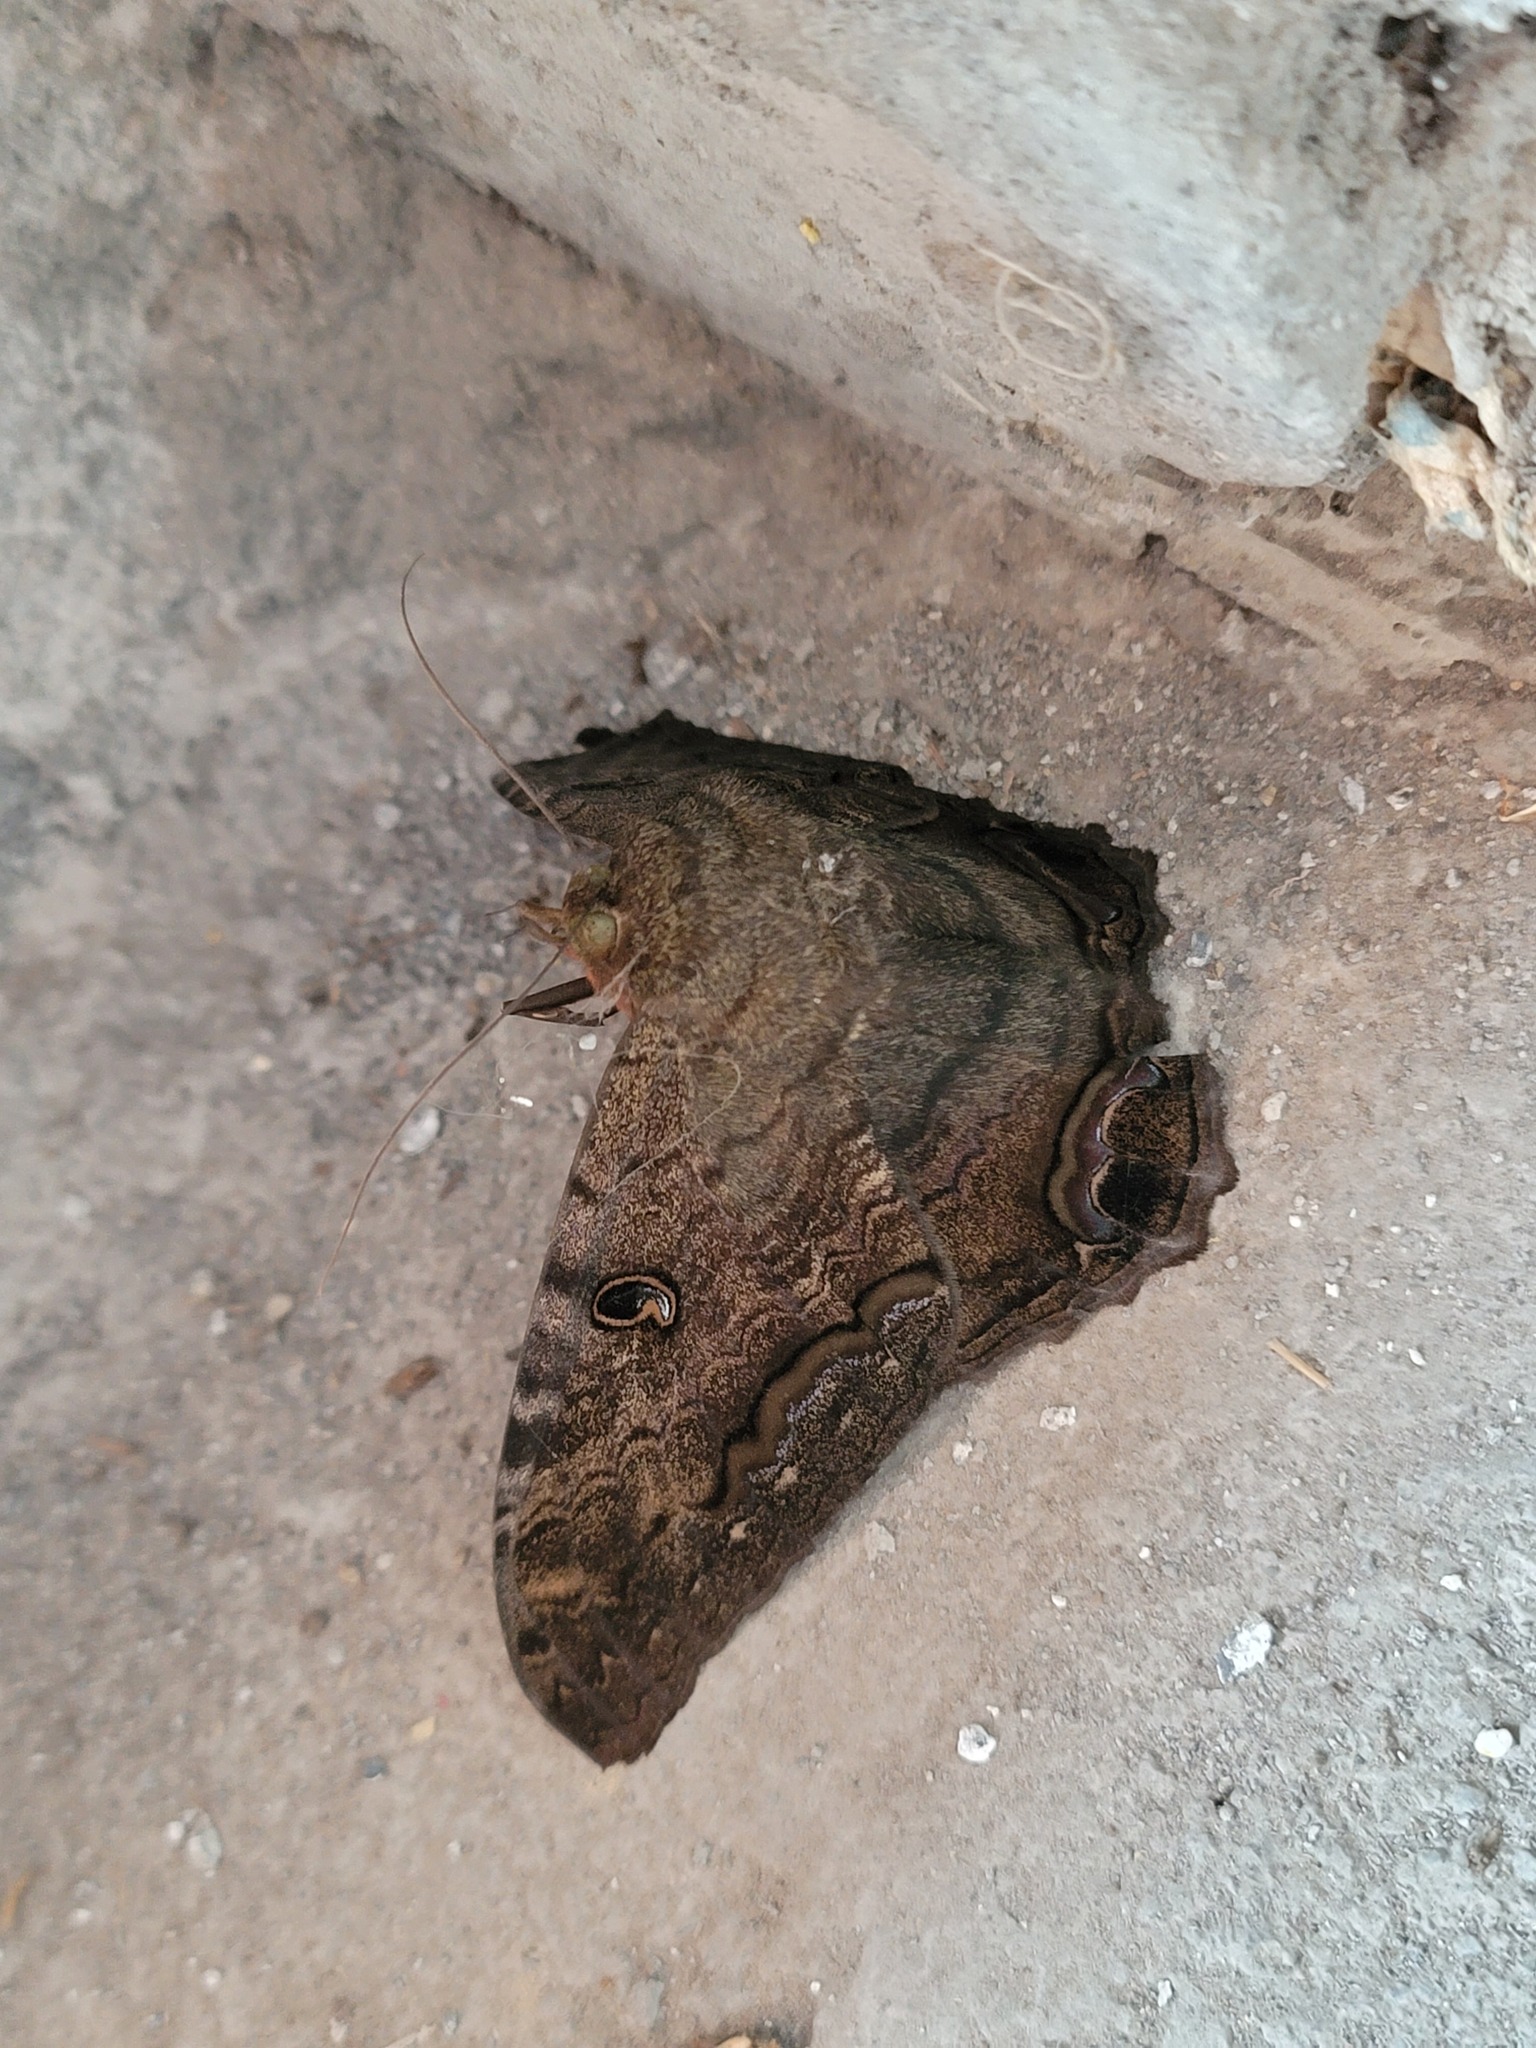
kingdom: Animalia
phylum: Arthropoda
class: Insecta
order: Lepidoptera
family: Erebidae
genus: Ascalapha
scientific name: Ascalapha odorata
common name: Black witch
